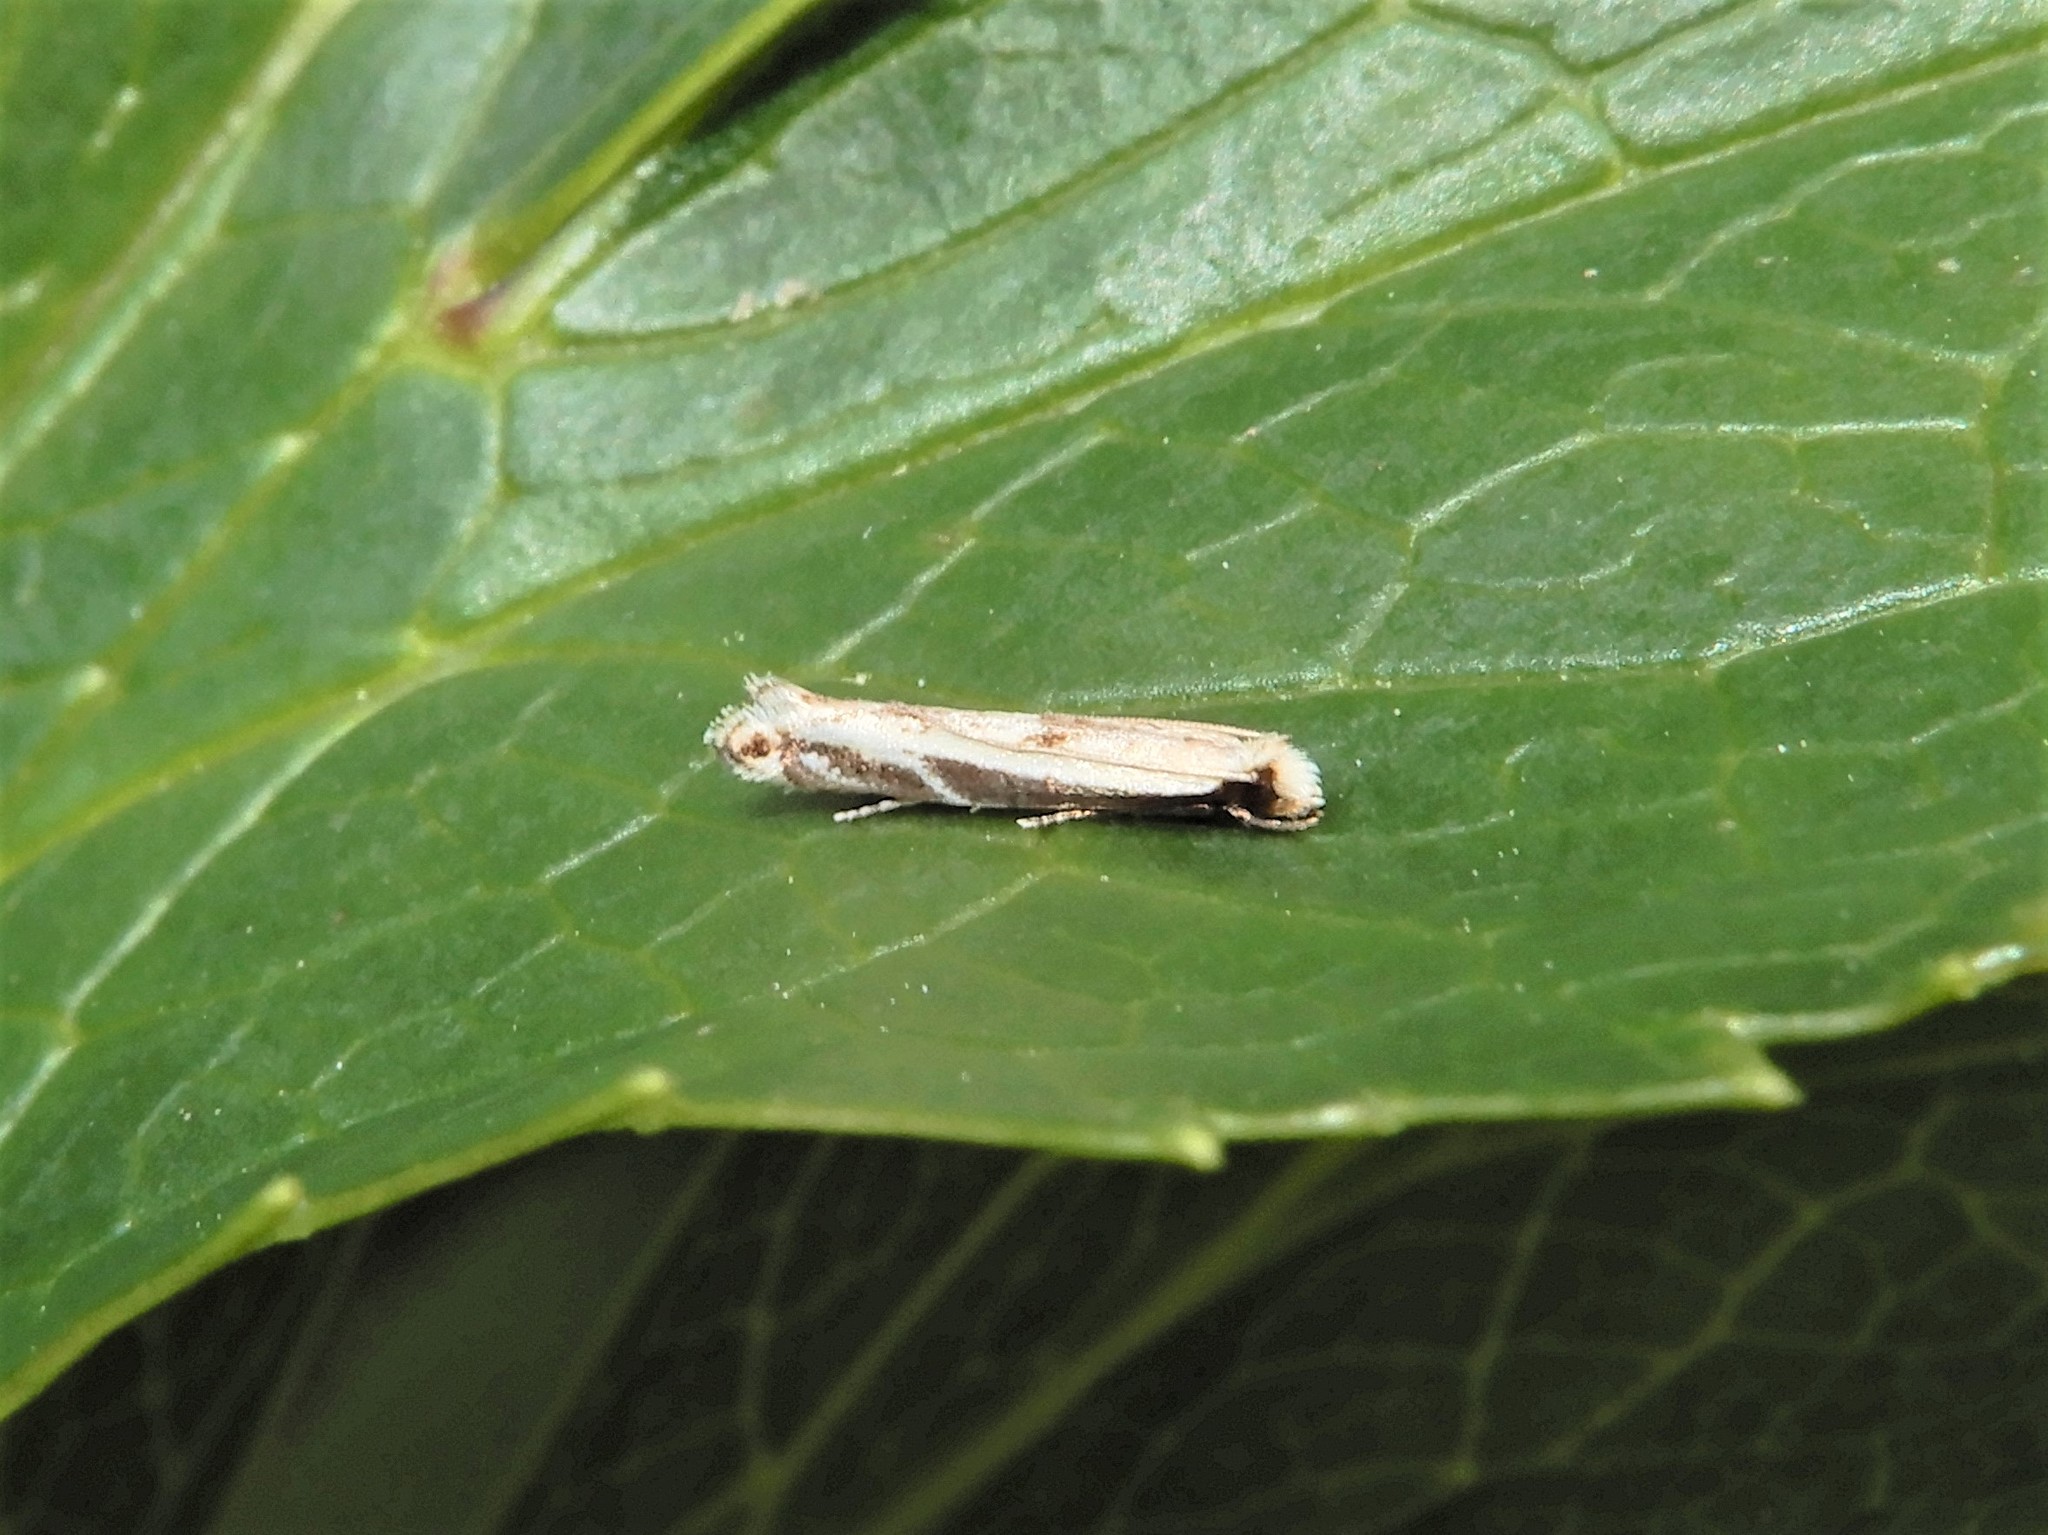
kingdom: Animalia
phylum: Arthropoda
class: Insecta
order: Lepidoptera
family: Tineidae
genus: Erechthias
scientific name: Erechthias terminella
